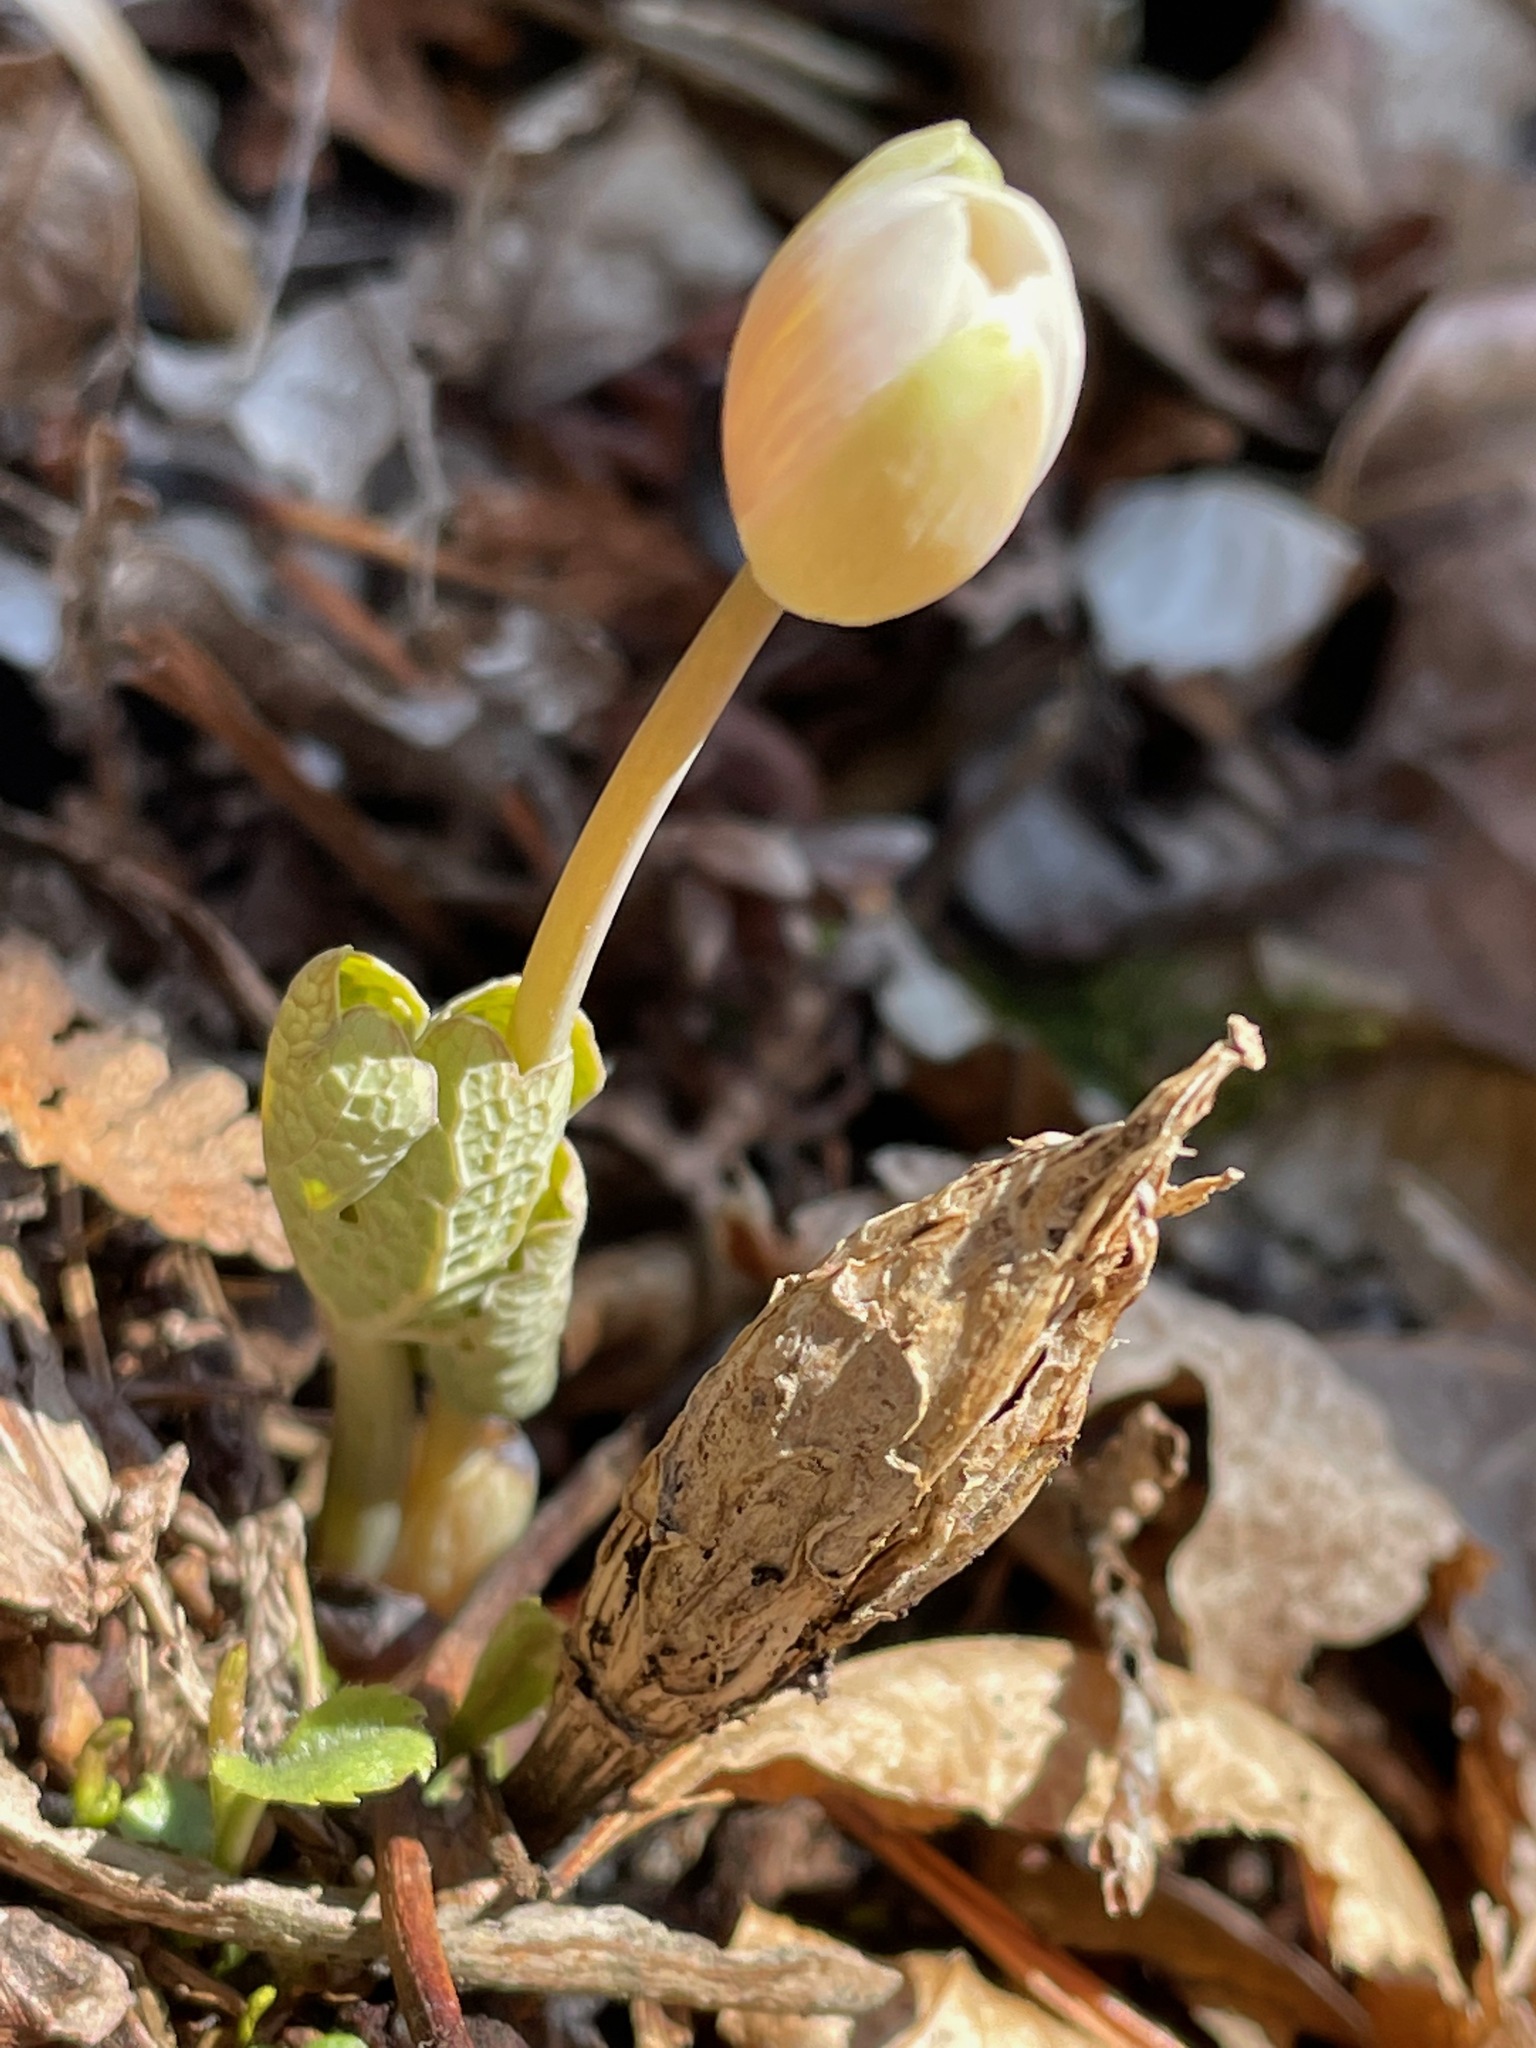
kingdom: Plantae
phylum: Tracheophyta
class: Magnoliopsida
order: Ranunculales
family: Papaveraceae
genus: Sanguinaria
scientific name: Sanguinaria canadensis
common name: Bloodroot
